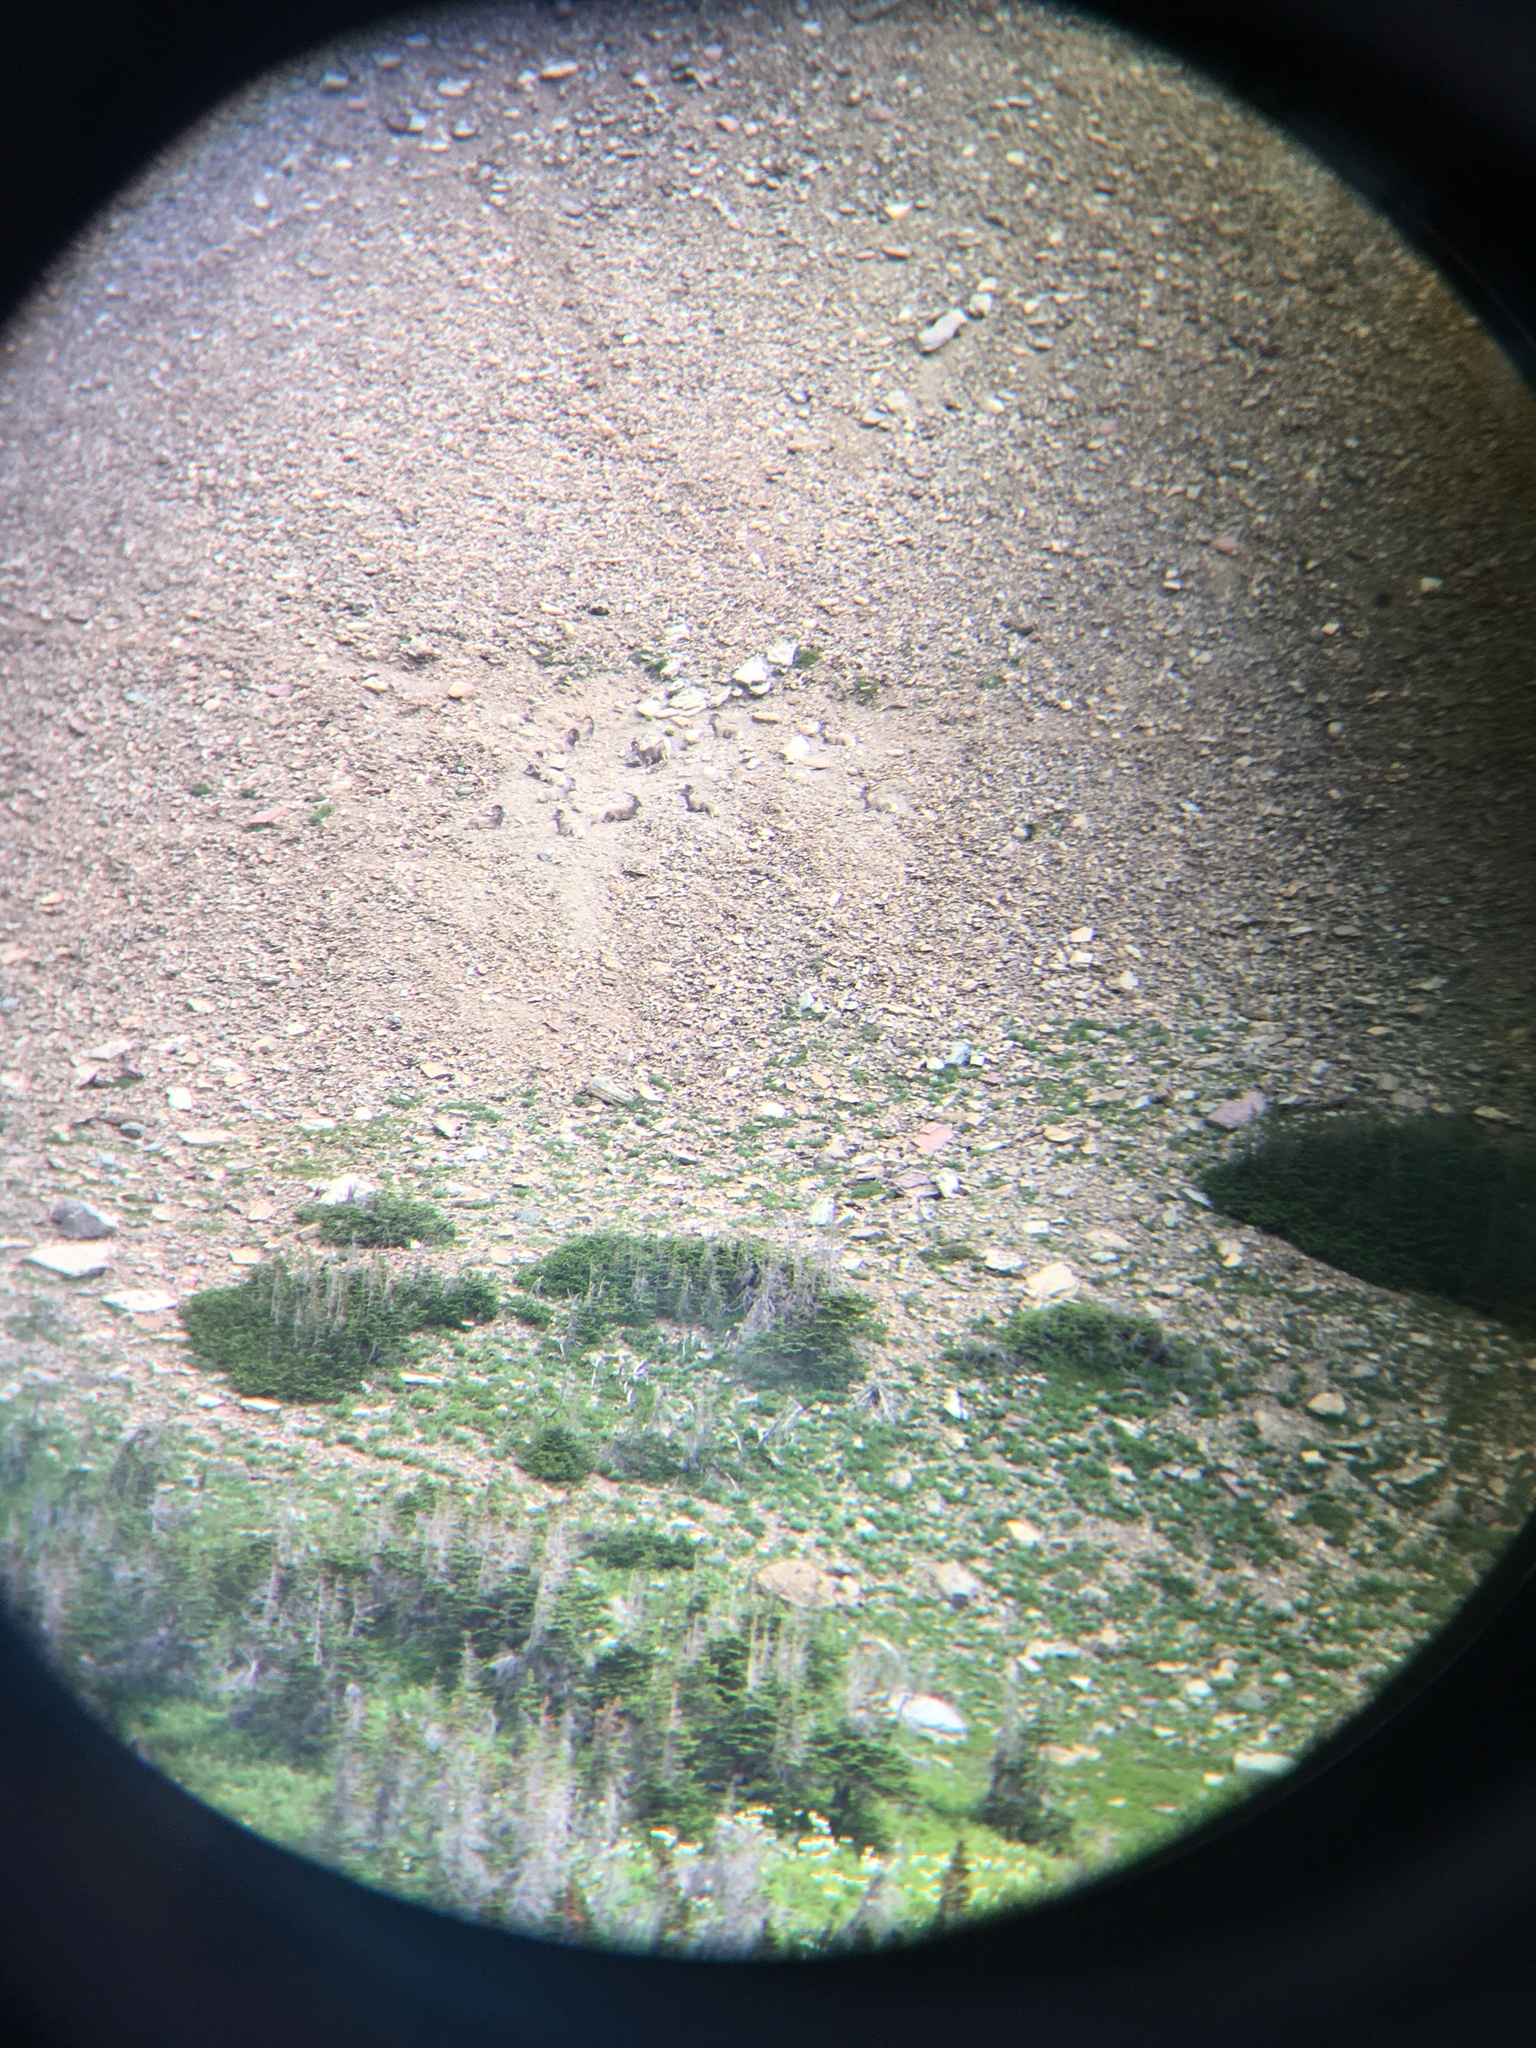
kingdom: Animalia
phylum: Chordata
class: Mammalia
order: Artiodactyla
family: Bovidae
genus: Ovis
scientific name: Ovis canadensis
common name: Bighorn sheep
